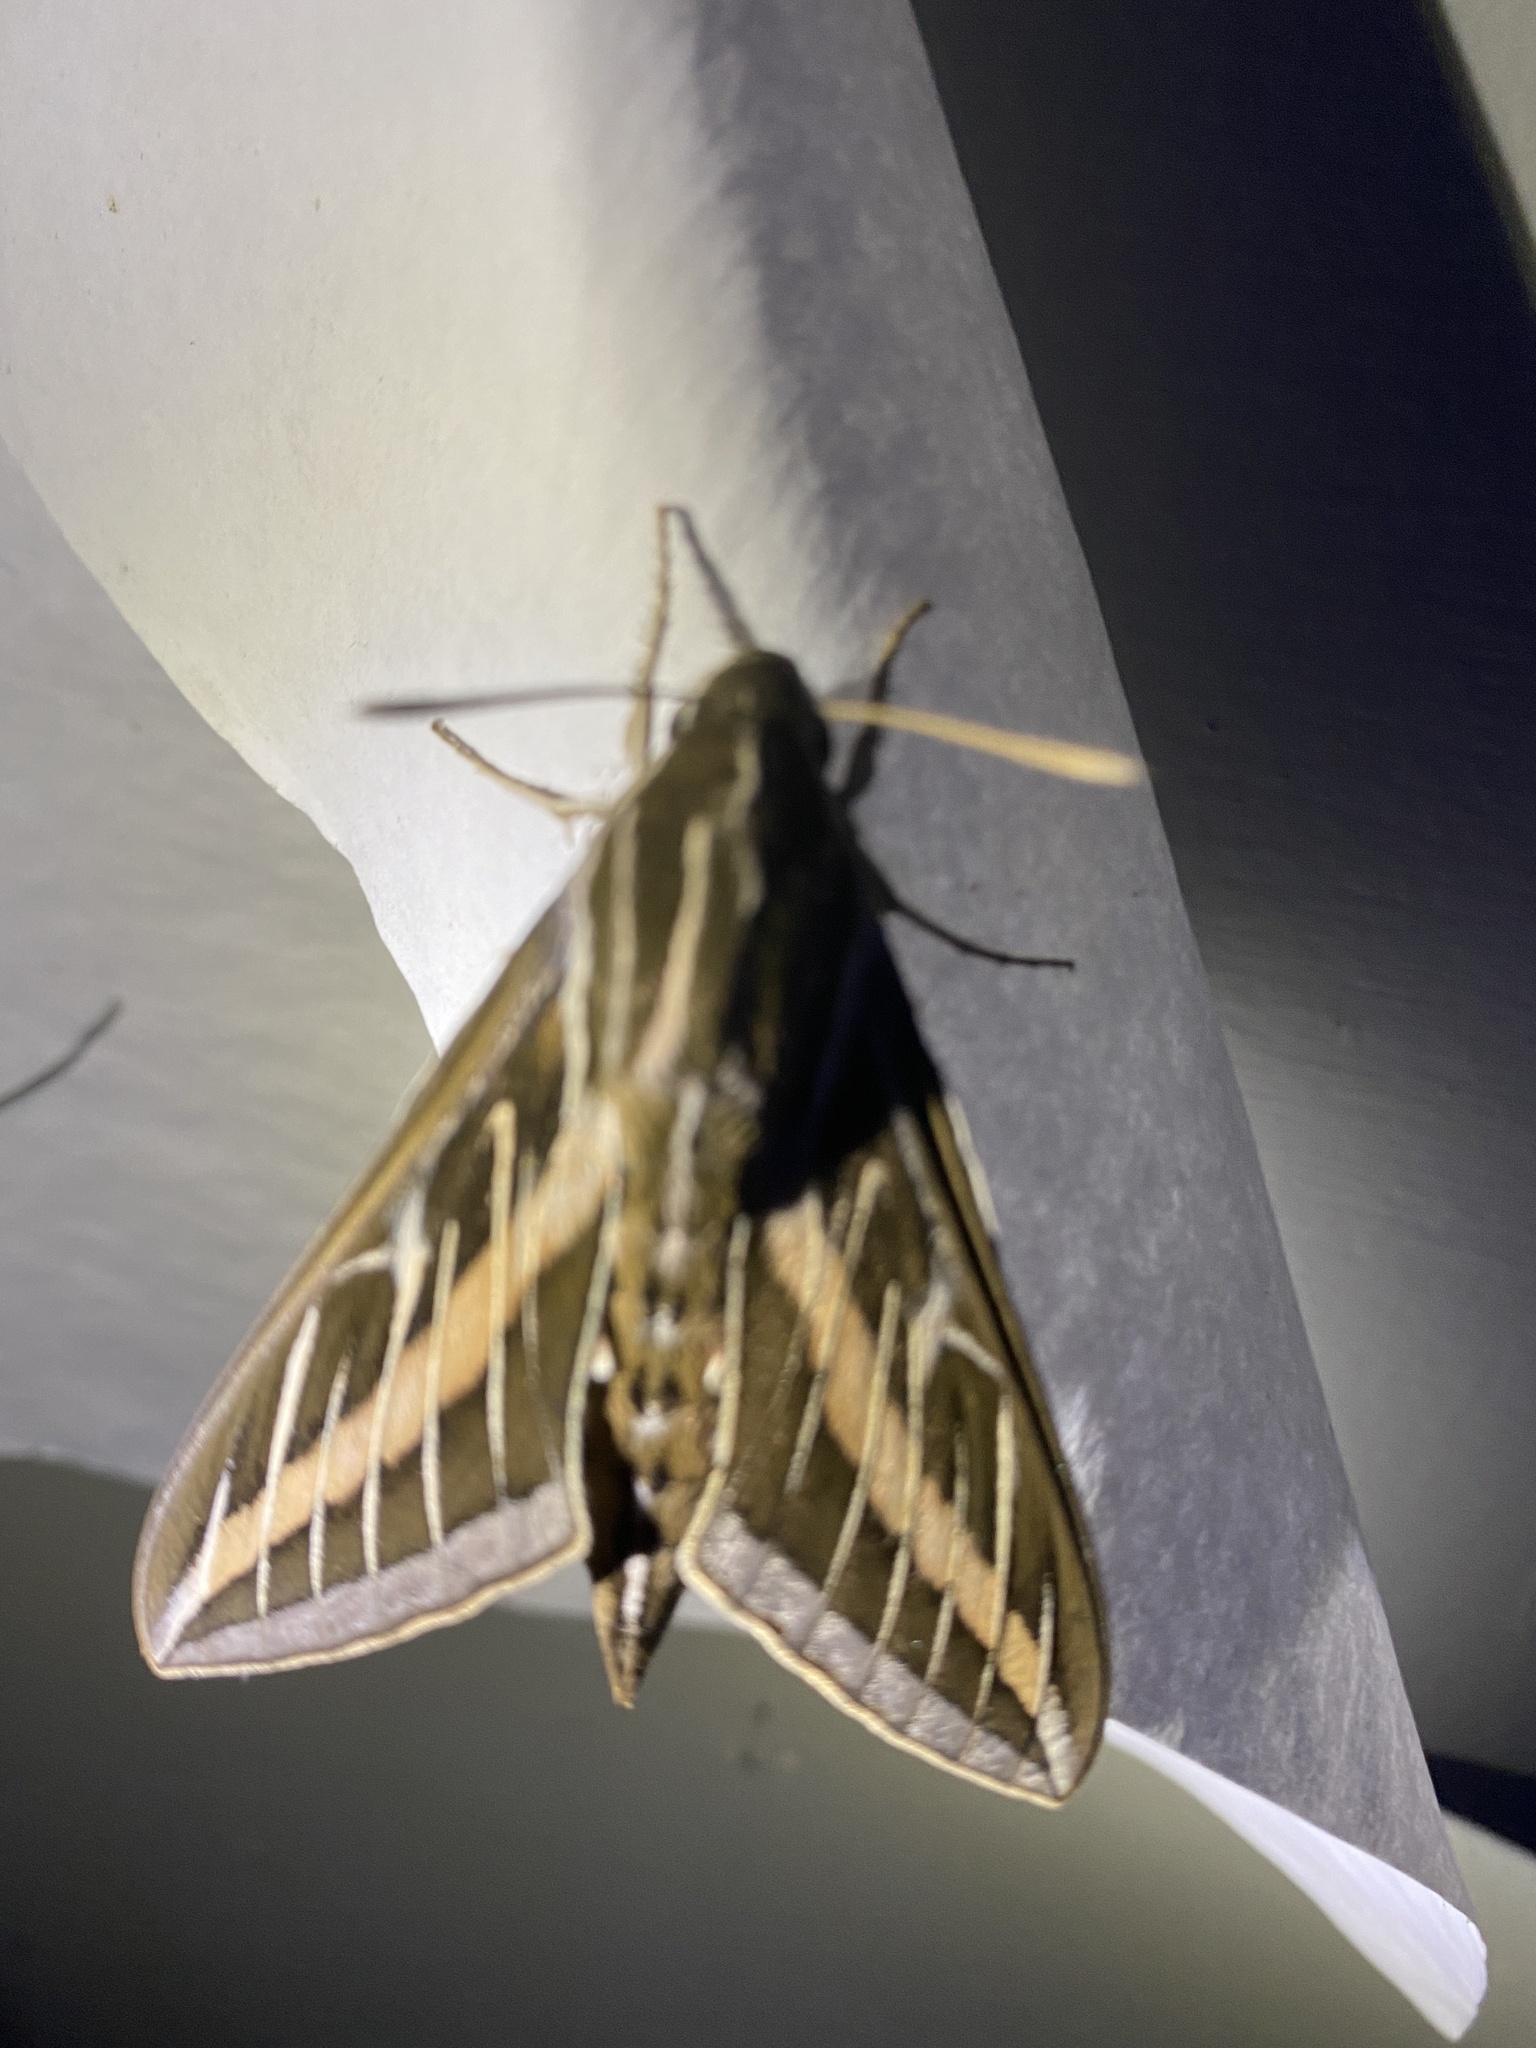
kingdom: Animalia
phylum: Arthropoda
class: Insecta
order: Lepidoptera
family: Sphingidae
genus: Hyles
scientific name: Hyles lineata
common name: White-lined sphinx
